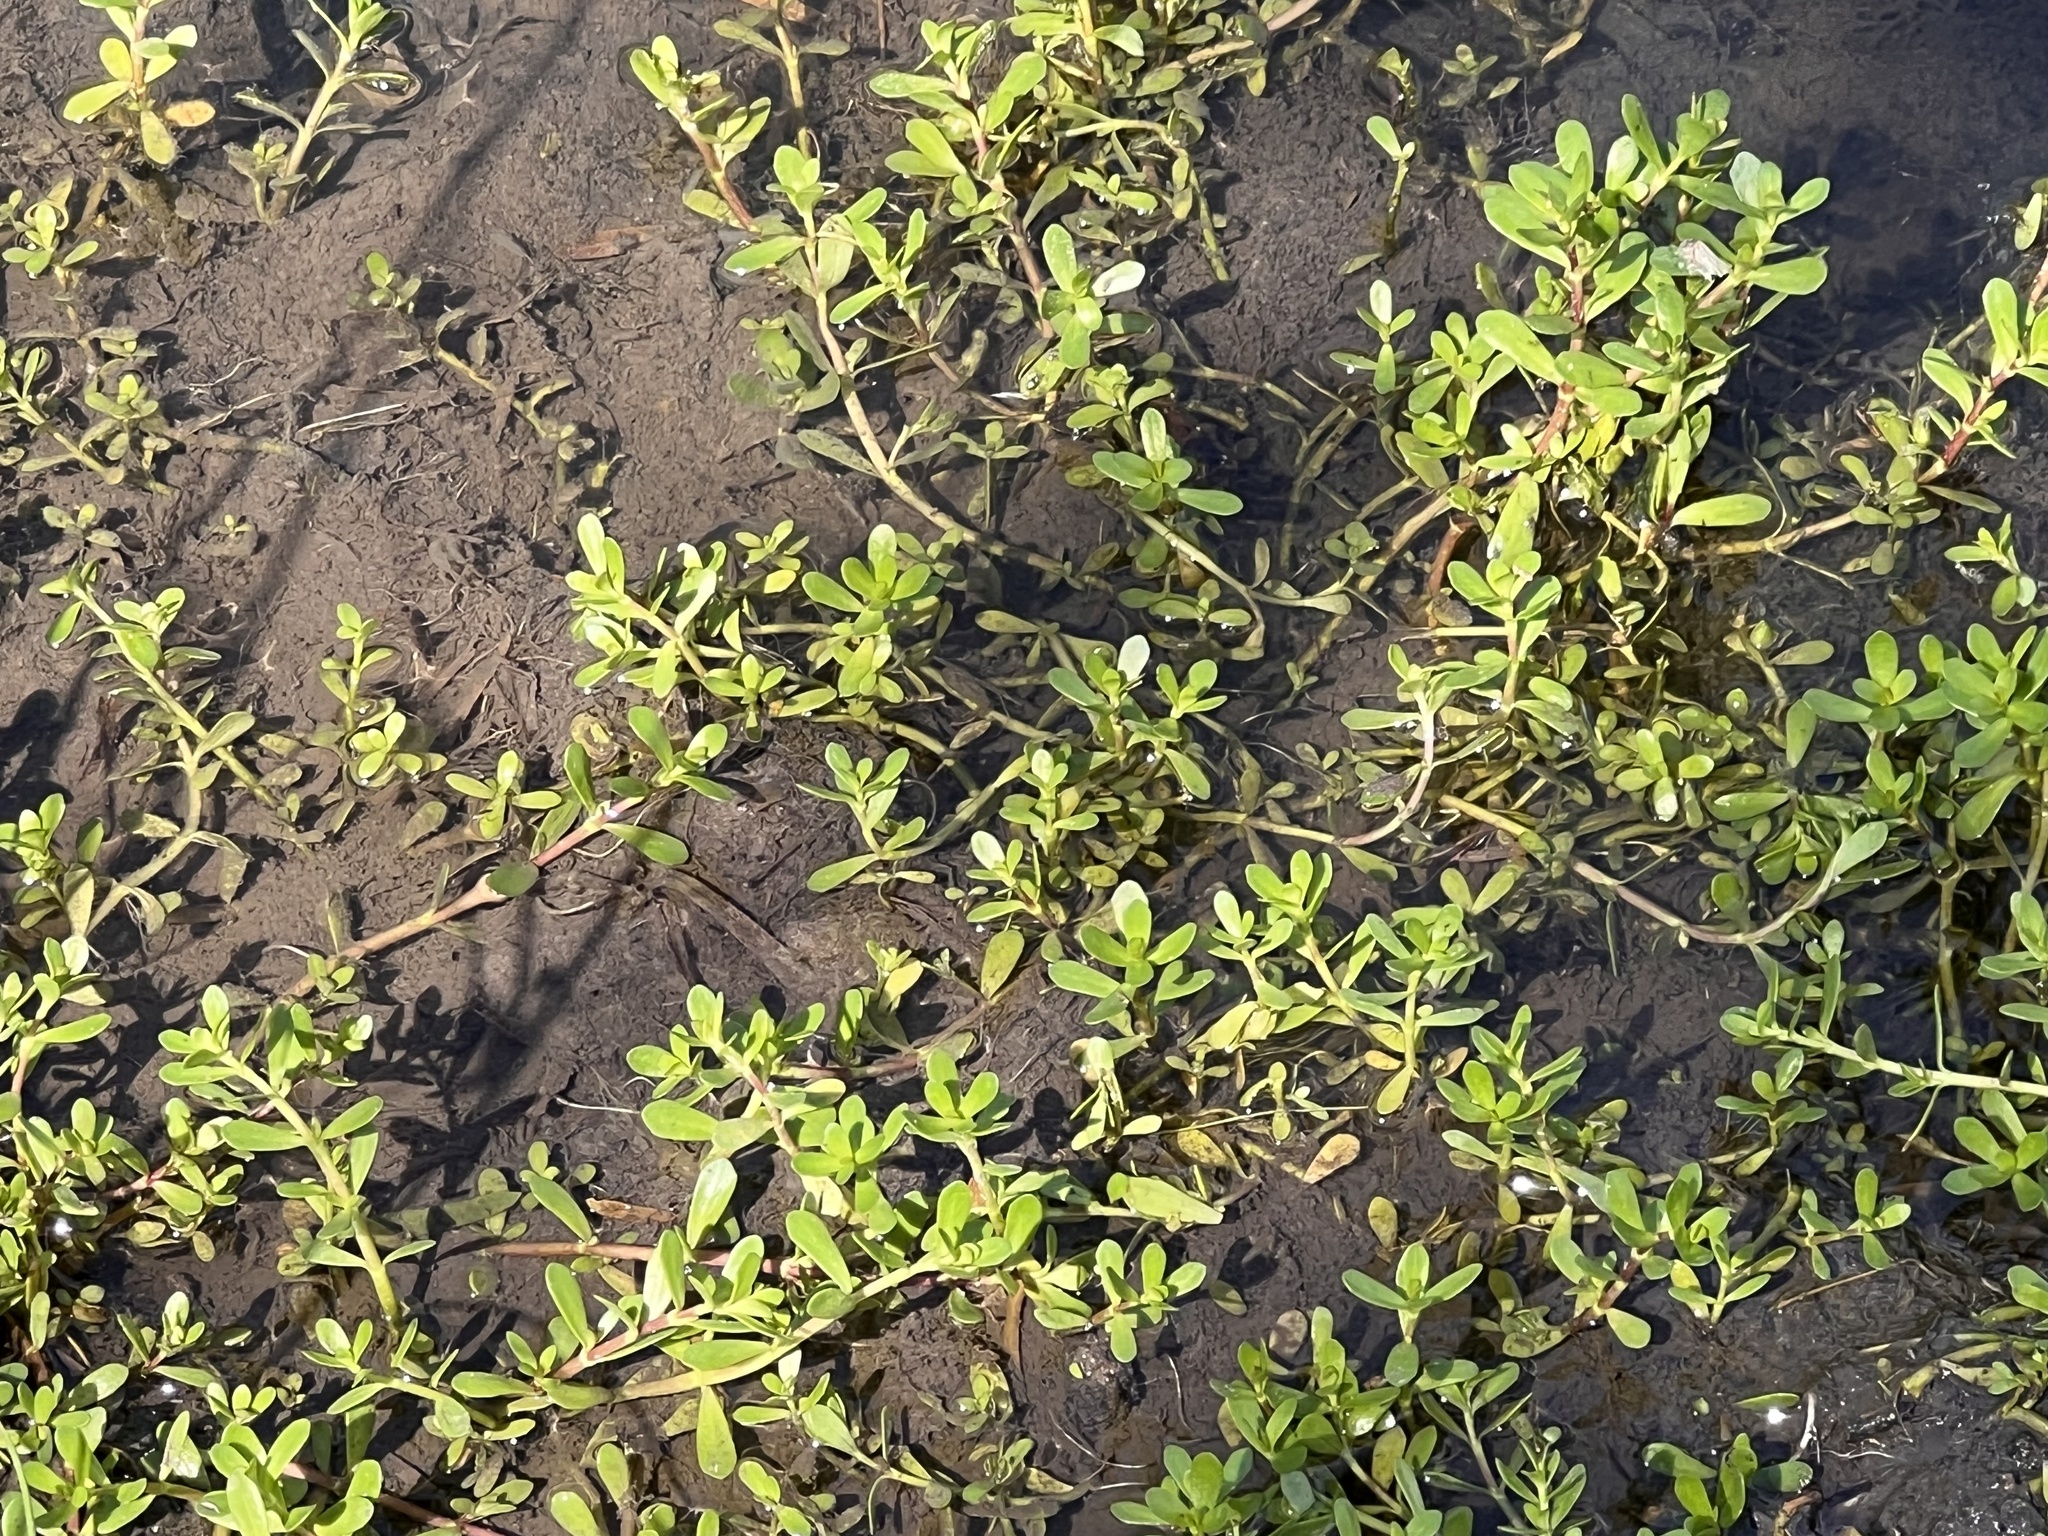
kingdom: Plantae
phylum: Tracheophyta
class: Magnoliopsida
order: Lamiales
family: Plantaginaceae
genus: Bacopa
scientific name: Bacopa monnieri
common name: Indian-pennywort
